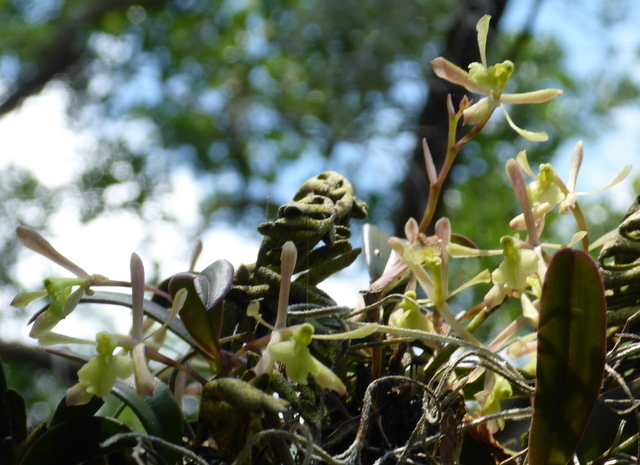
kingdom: Plantae
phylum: Tracheophyta
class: Liliopsida
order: Asparagales
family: Orchidaceae
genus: Epidendrum
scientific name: Epidendrum conopseum
